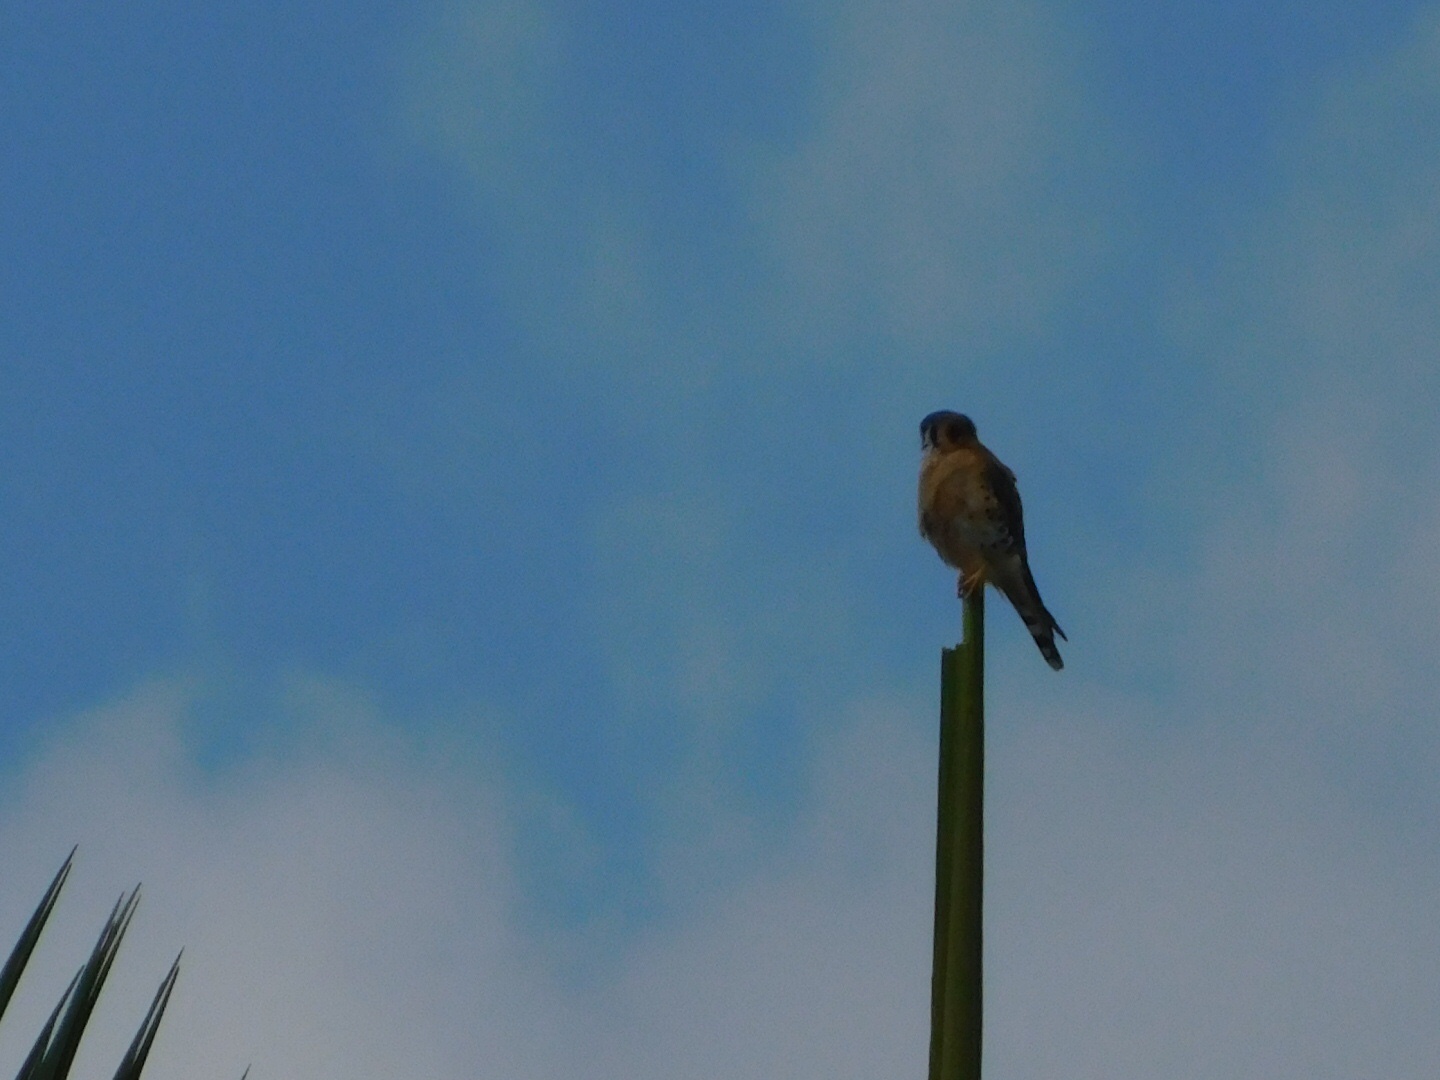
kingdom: Animalia
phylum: Chordata
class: Aves
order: Falconiformes
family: Falconidae
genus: Falco
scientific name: Falco sparverius
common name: American kestrel
